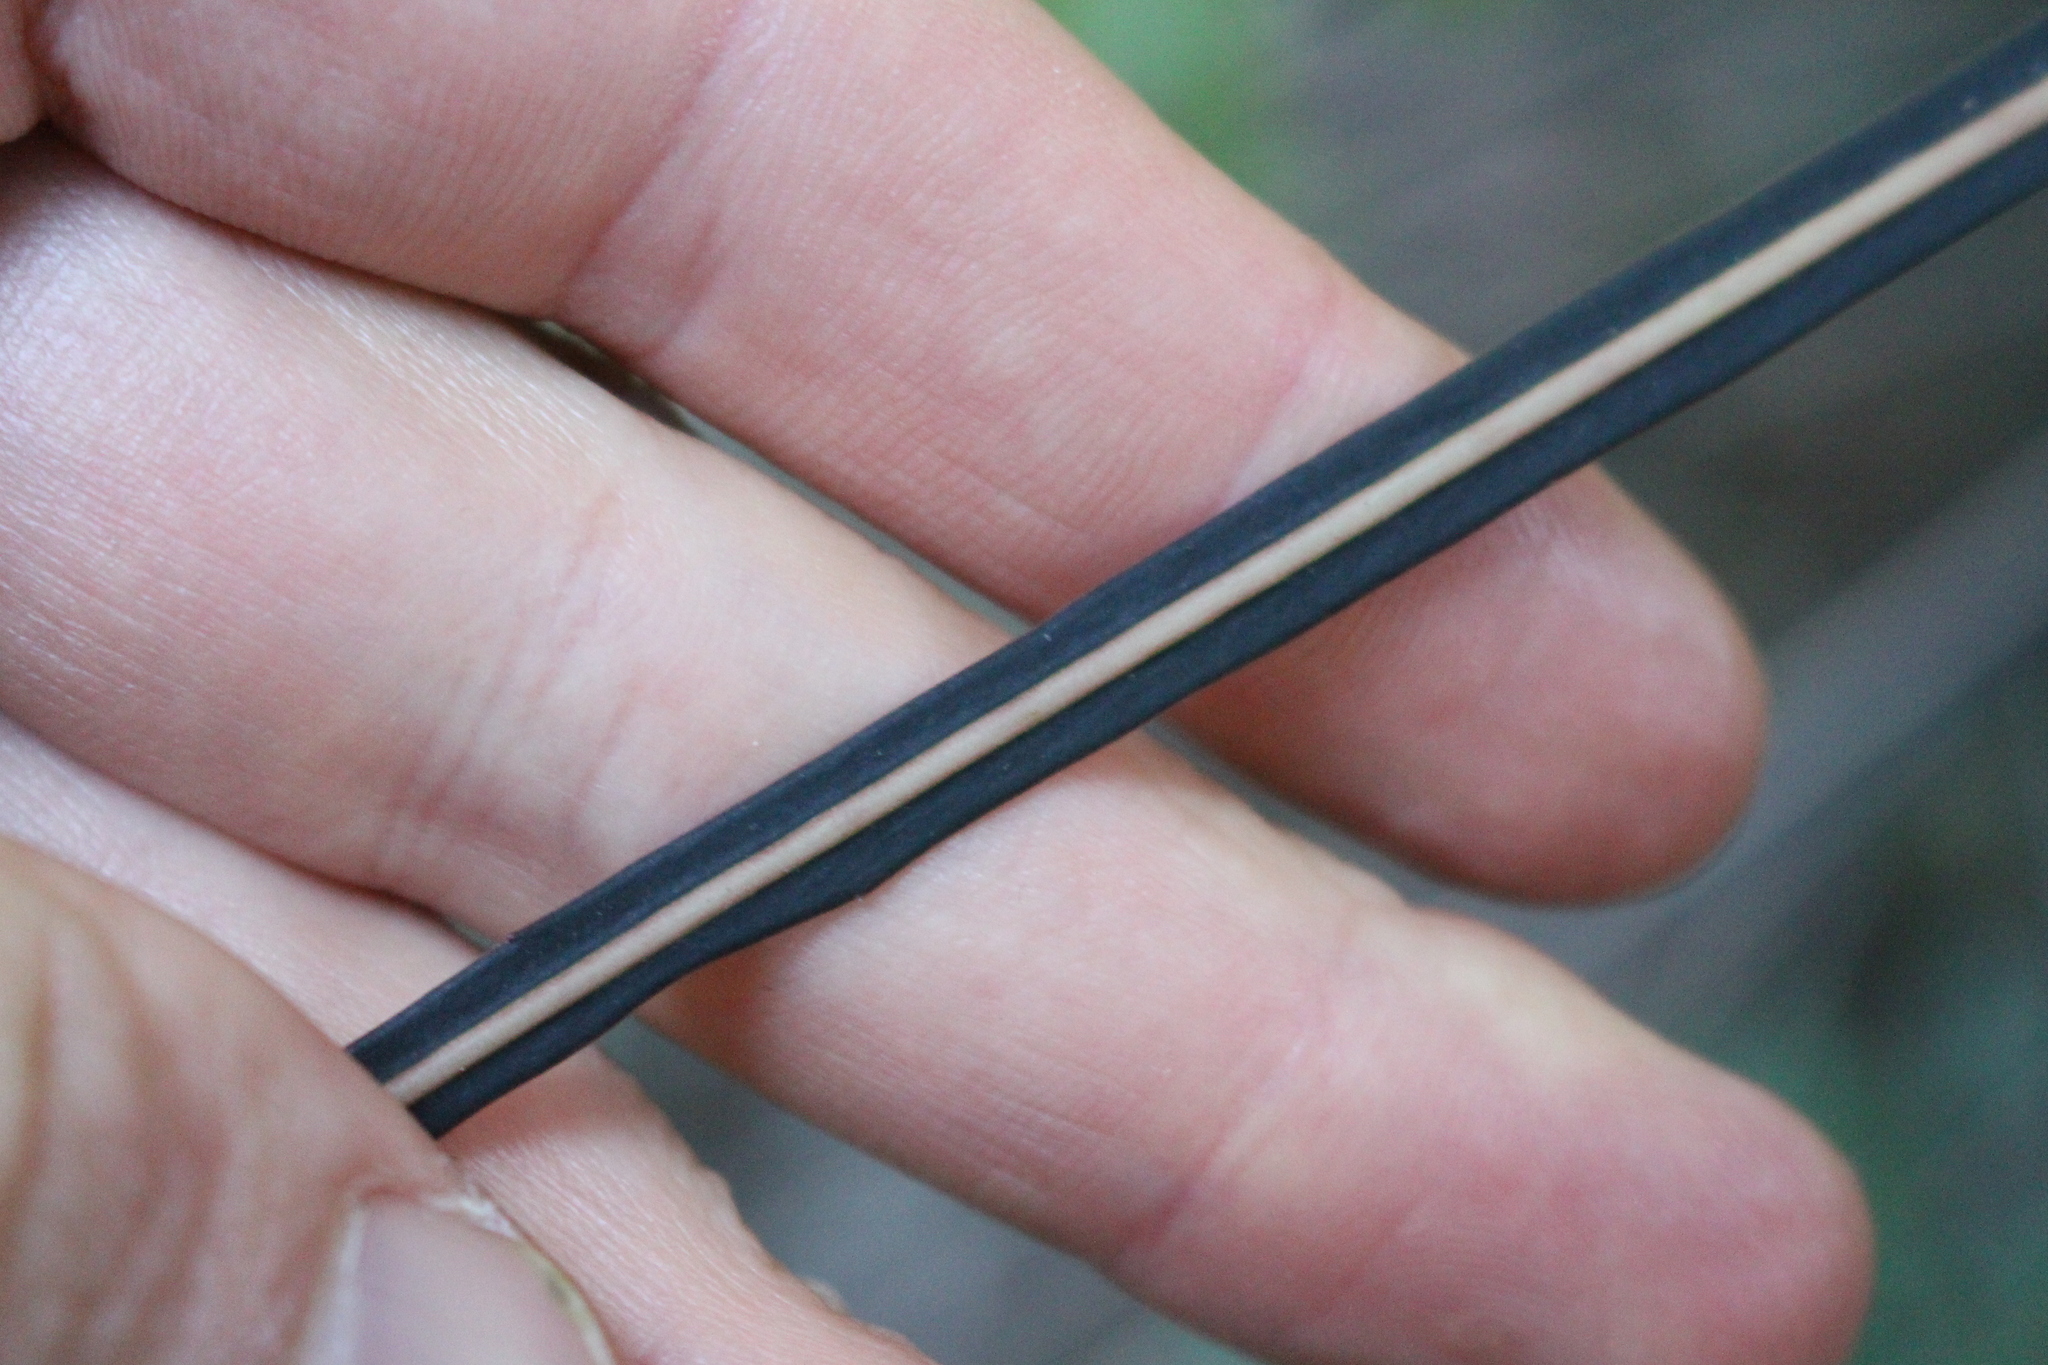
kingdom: Plantae
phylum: Tracheophyta
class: Magnoliopsida
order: Apiales
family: Araliaceae
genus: Pseudopanax
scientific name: Pseudopanax crassifolius
